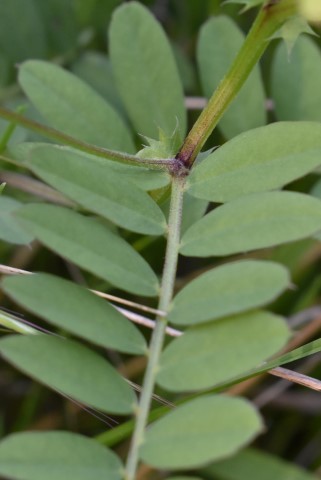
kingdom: Plantae
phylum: Tracheophyta
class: Magnoliopsida
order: Fabales
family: Fabaceae
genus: Vicia
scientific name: Vicia americana
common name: American vetch
